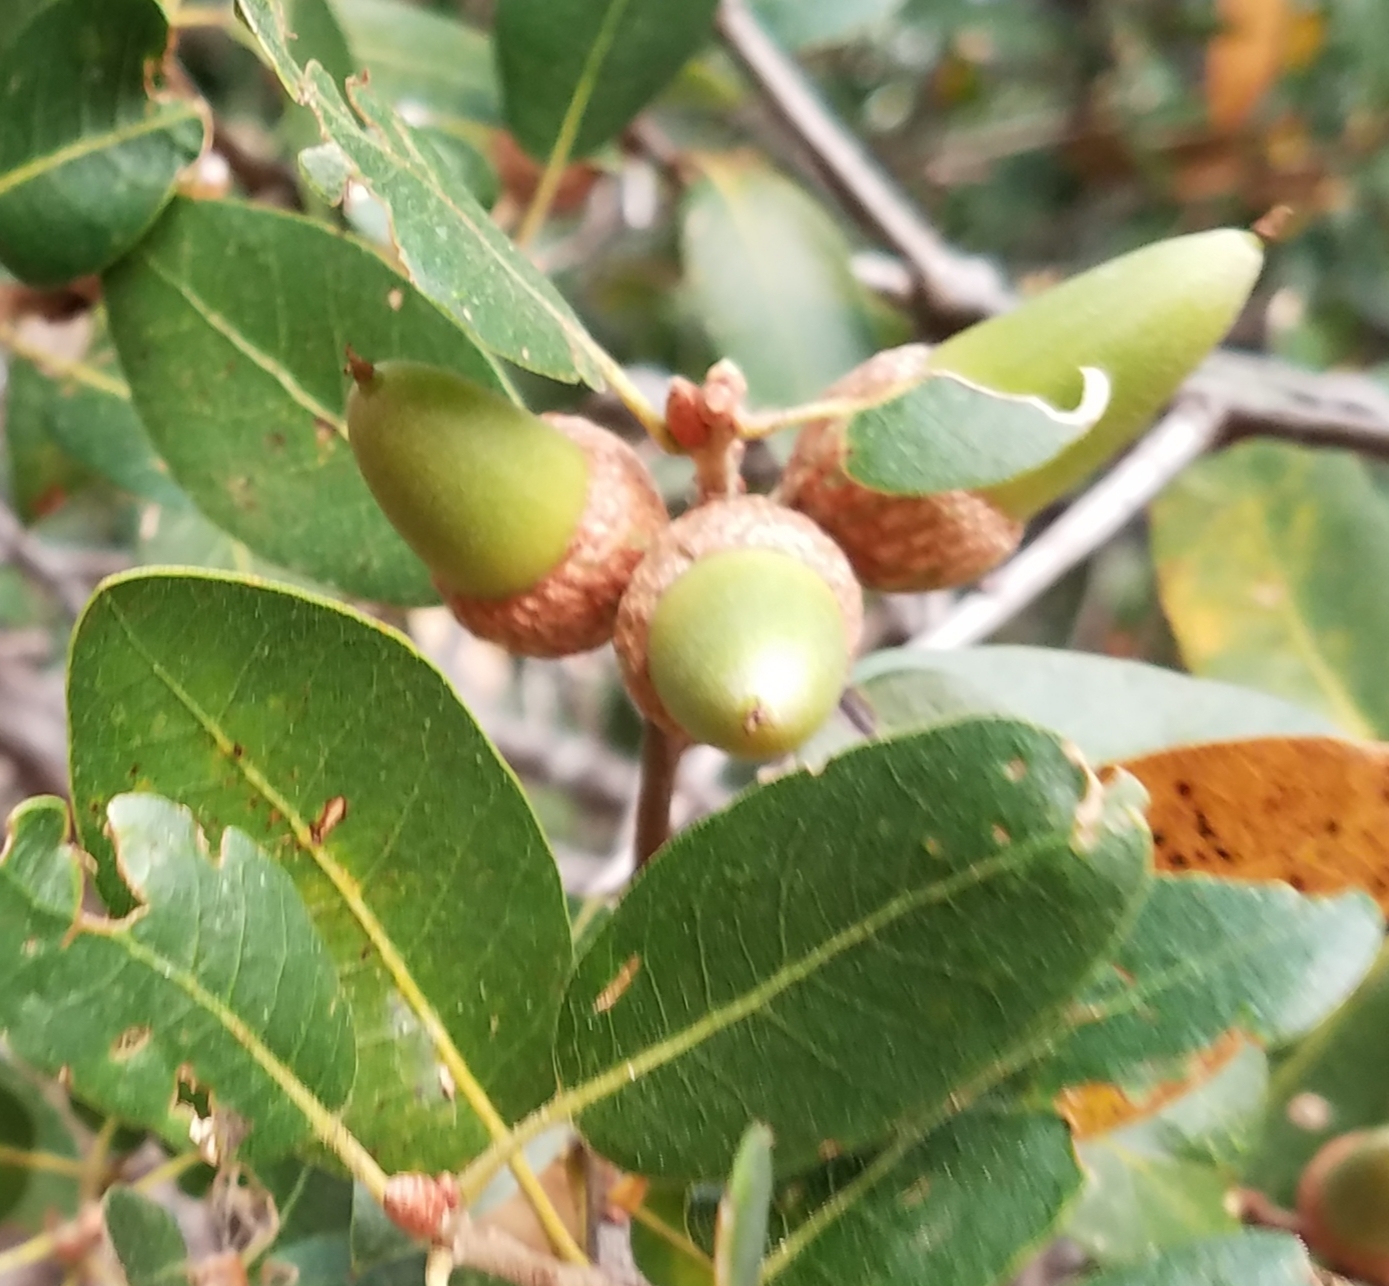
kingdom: Plantae
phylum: Tracheophyta
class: Magnoliopsida
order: Fagales
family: Fagaceae
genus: Quercus
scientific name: Quercus wislizeni
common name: Interior live oak
